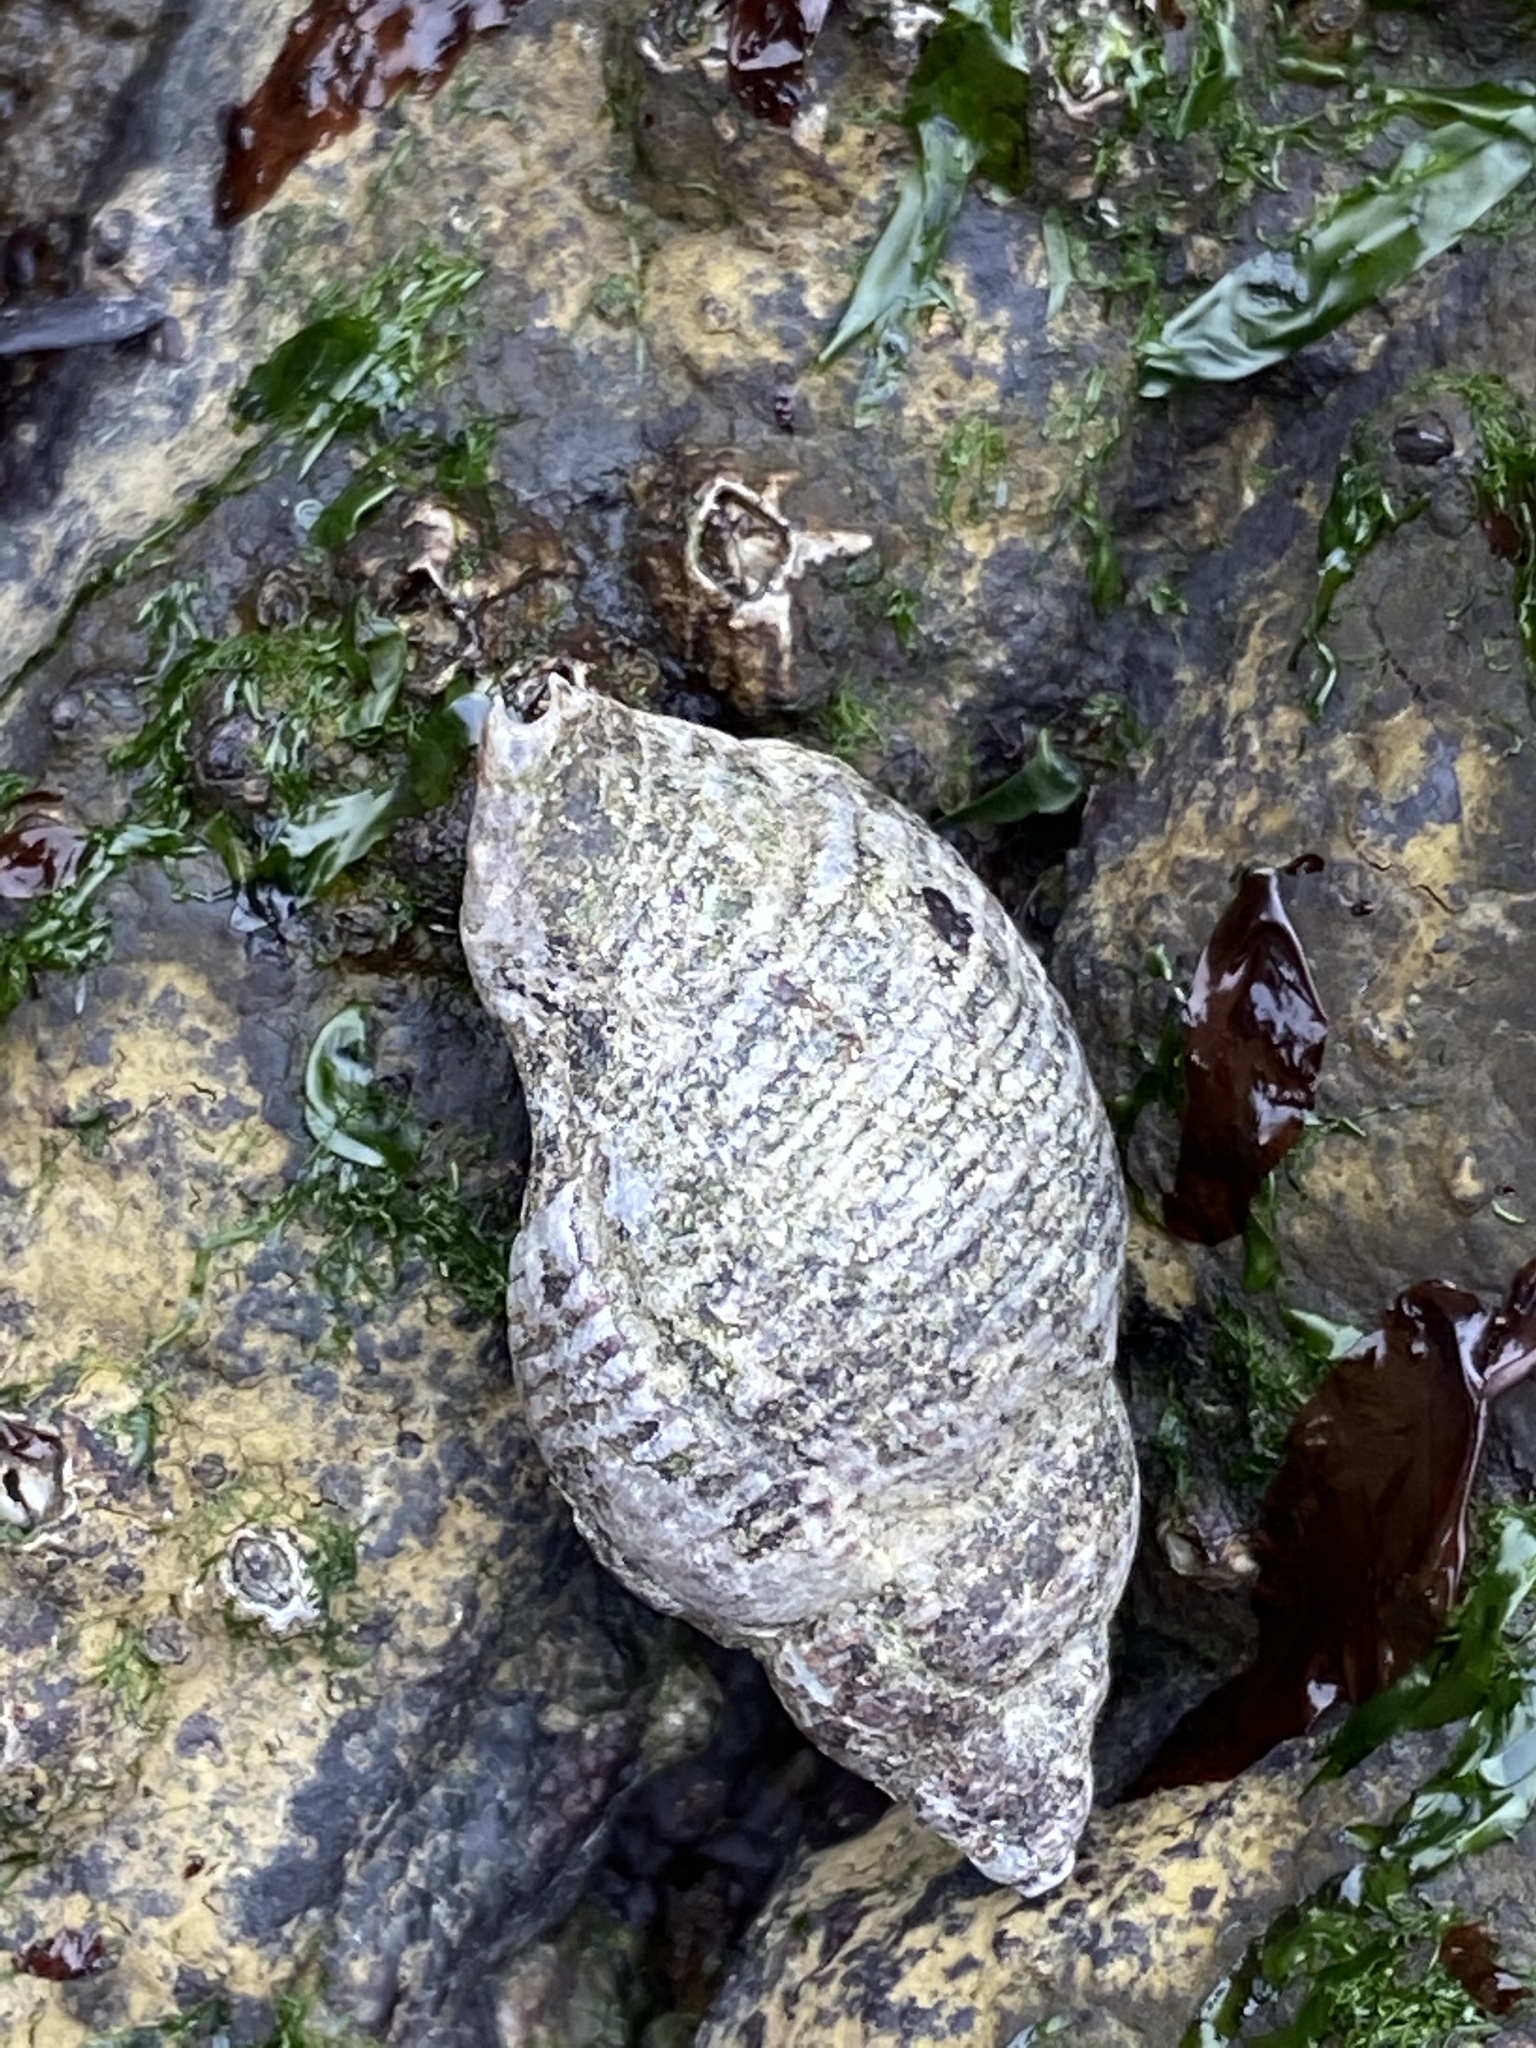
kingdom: Animalia
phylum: Mollusca
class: Gastropoda
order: Neogastropoda
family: Tudiclidae
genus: Lirabuccinum
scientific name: Lirabuccinum dirum
